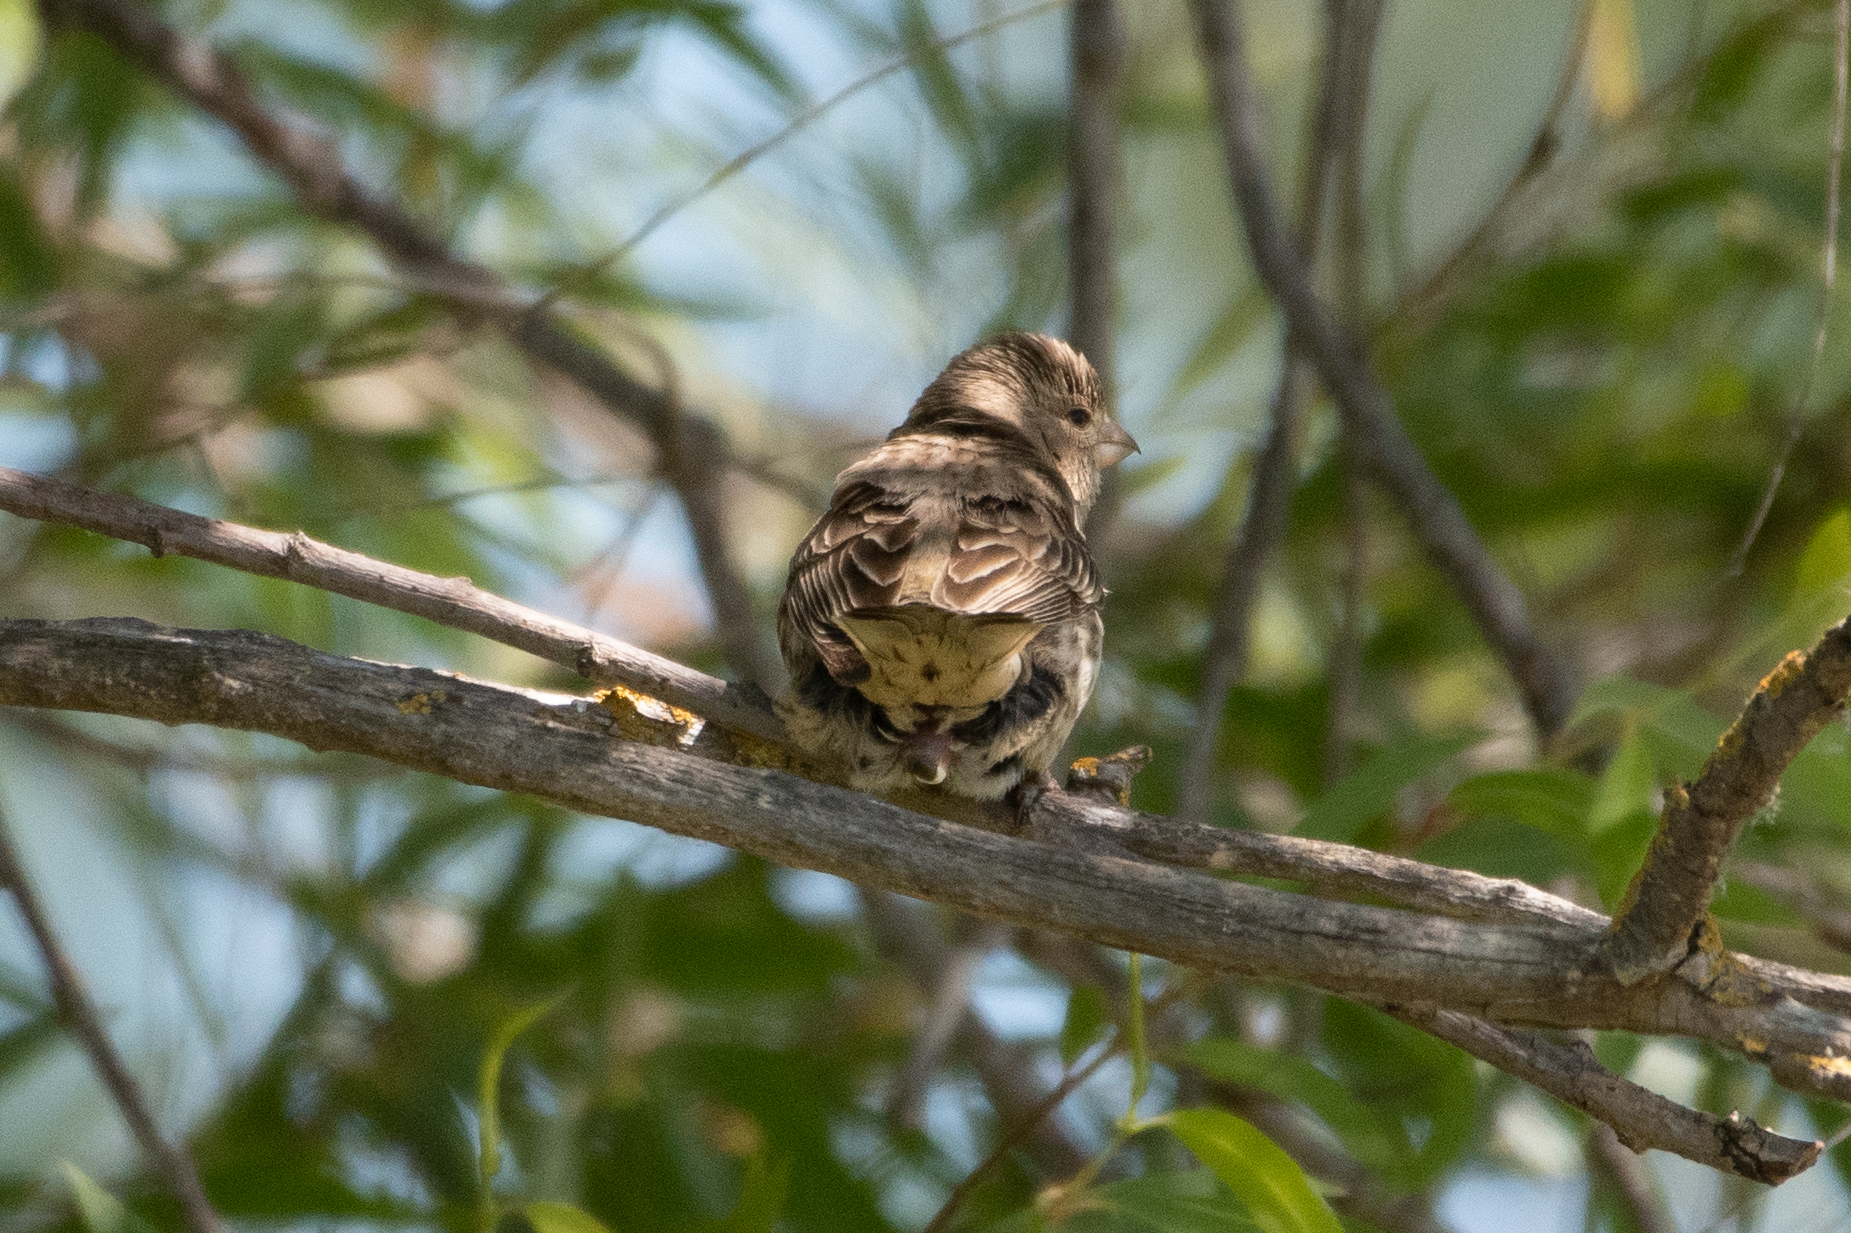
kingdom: Animalia
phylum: Chordata
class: Aves
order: Passeriformes
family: Fringillidae
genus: Haemorhous
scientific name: Haemorhous mexicanus
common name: House finch
